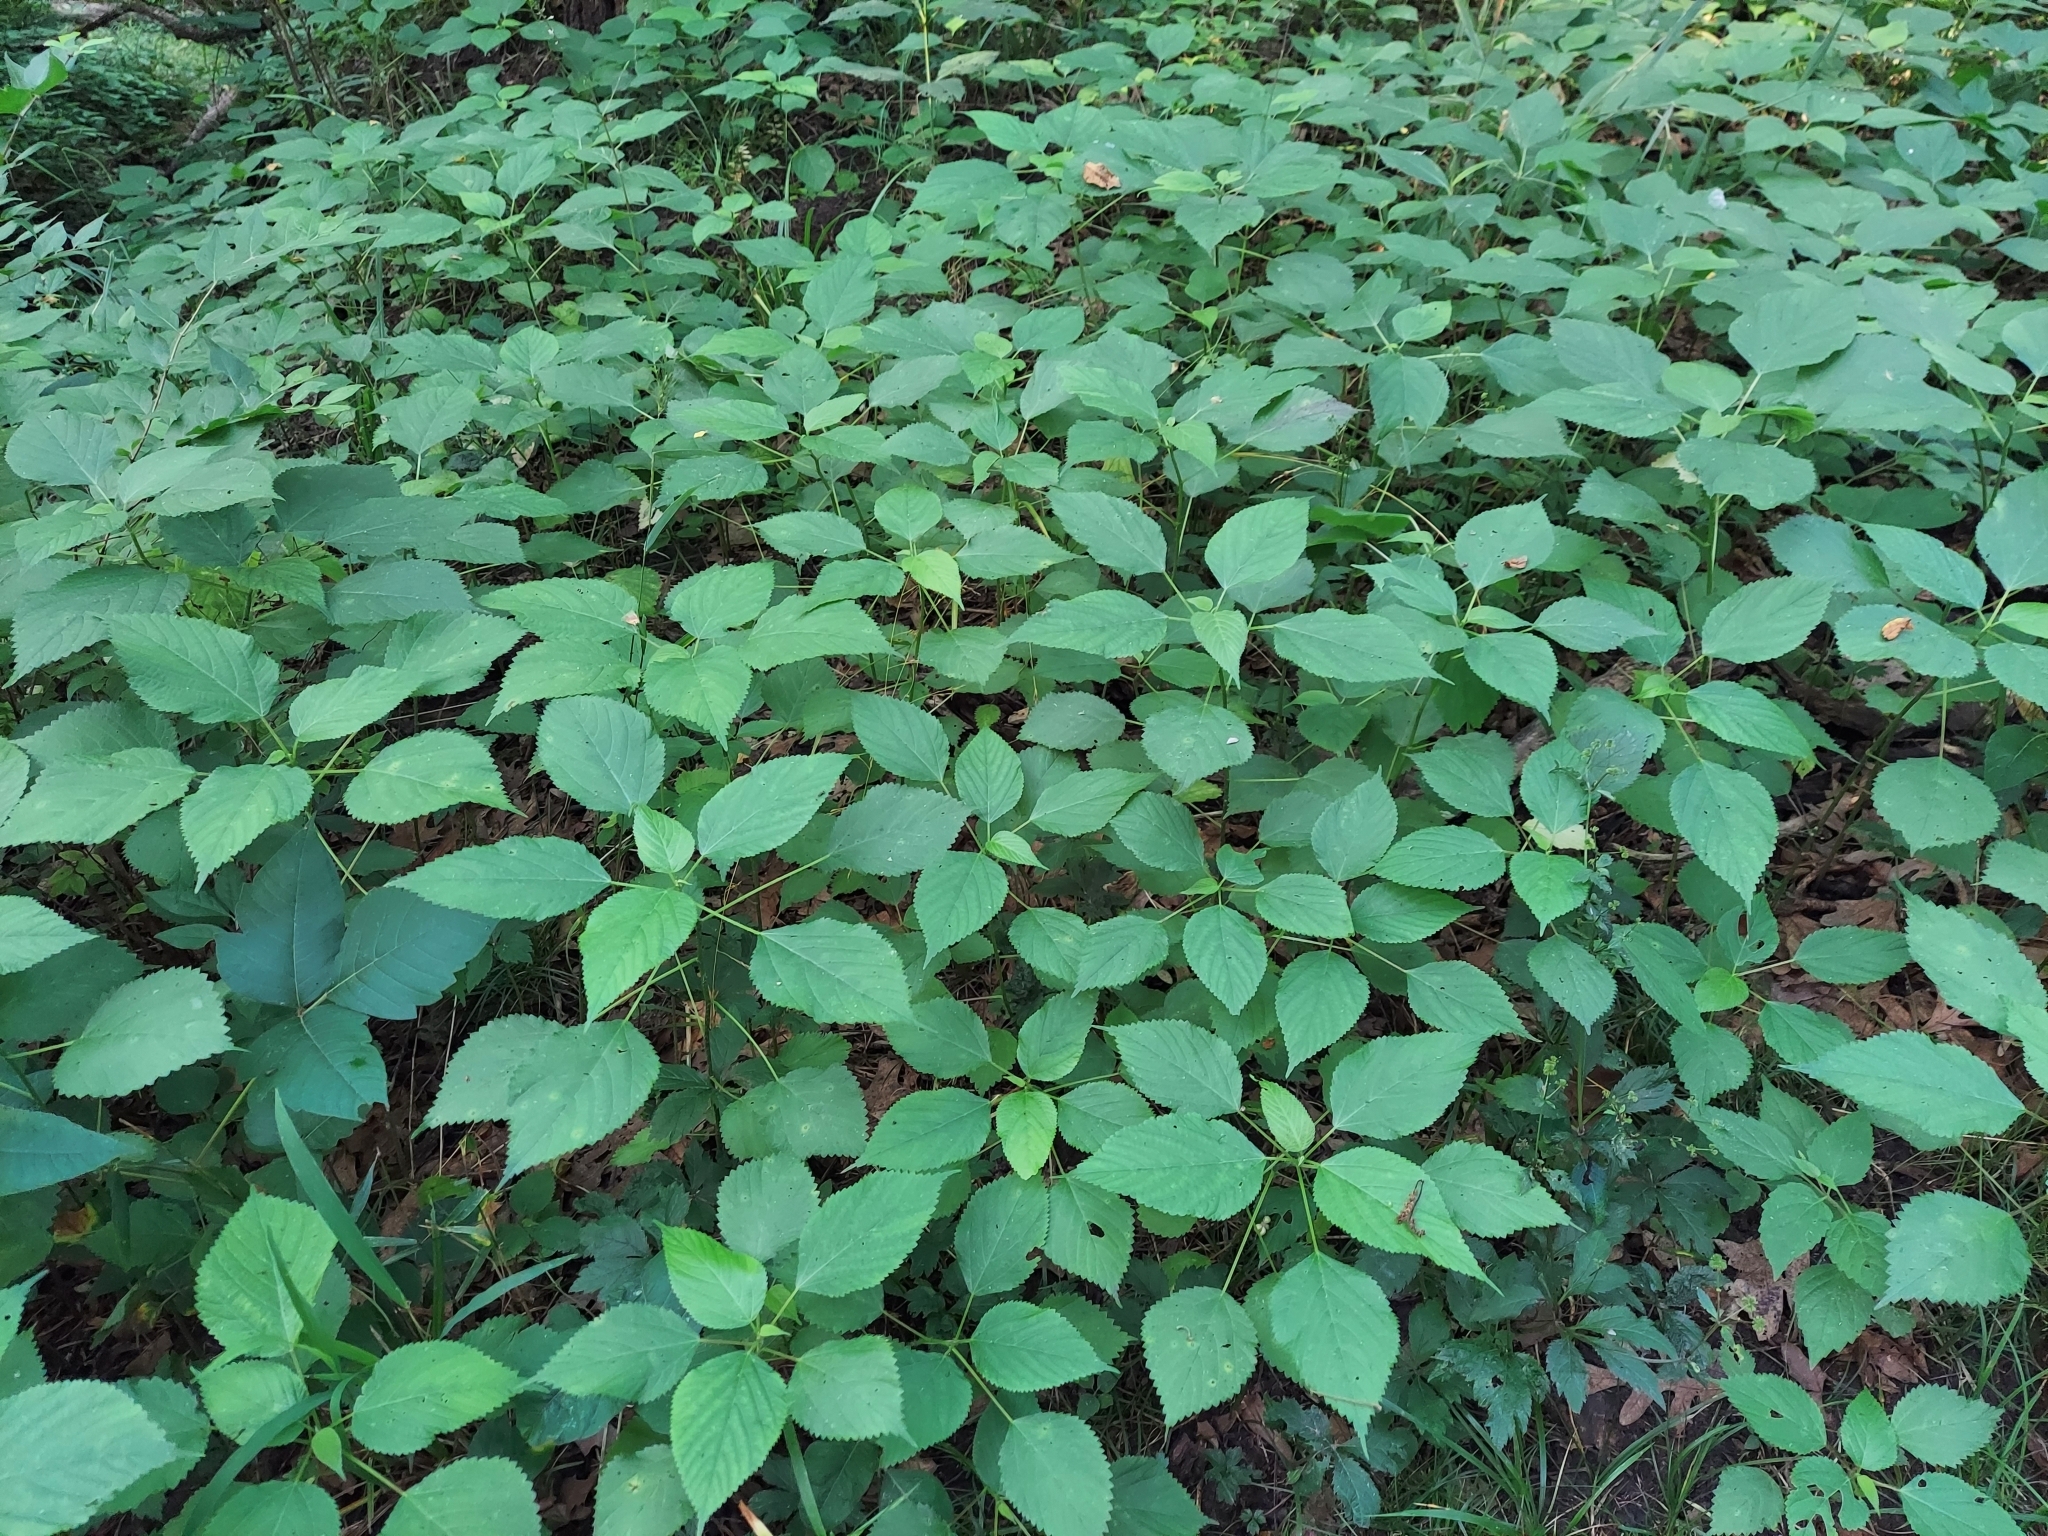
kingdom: Plantae
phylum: Tracheophyta
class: Magnoliopsida
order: Rosales
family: Urticaceae
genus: Laportea
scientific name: Laportea canadensis
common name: Canada nettle
